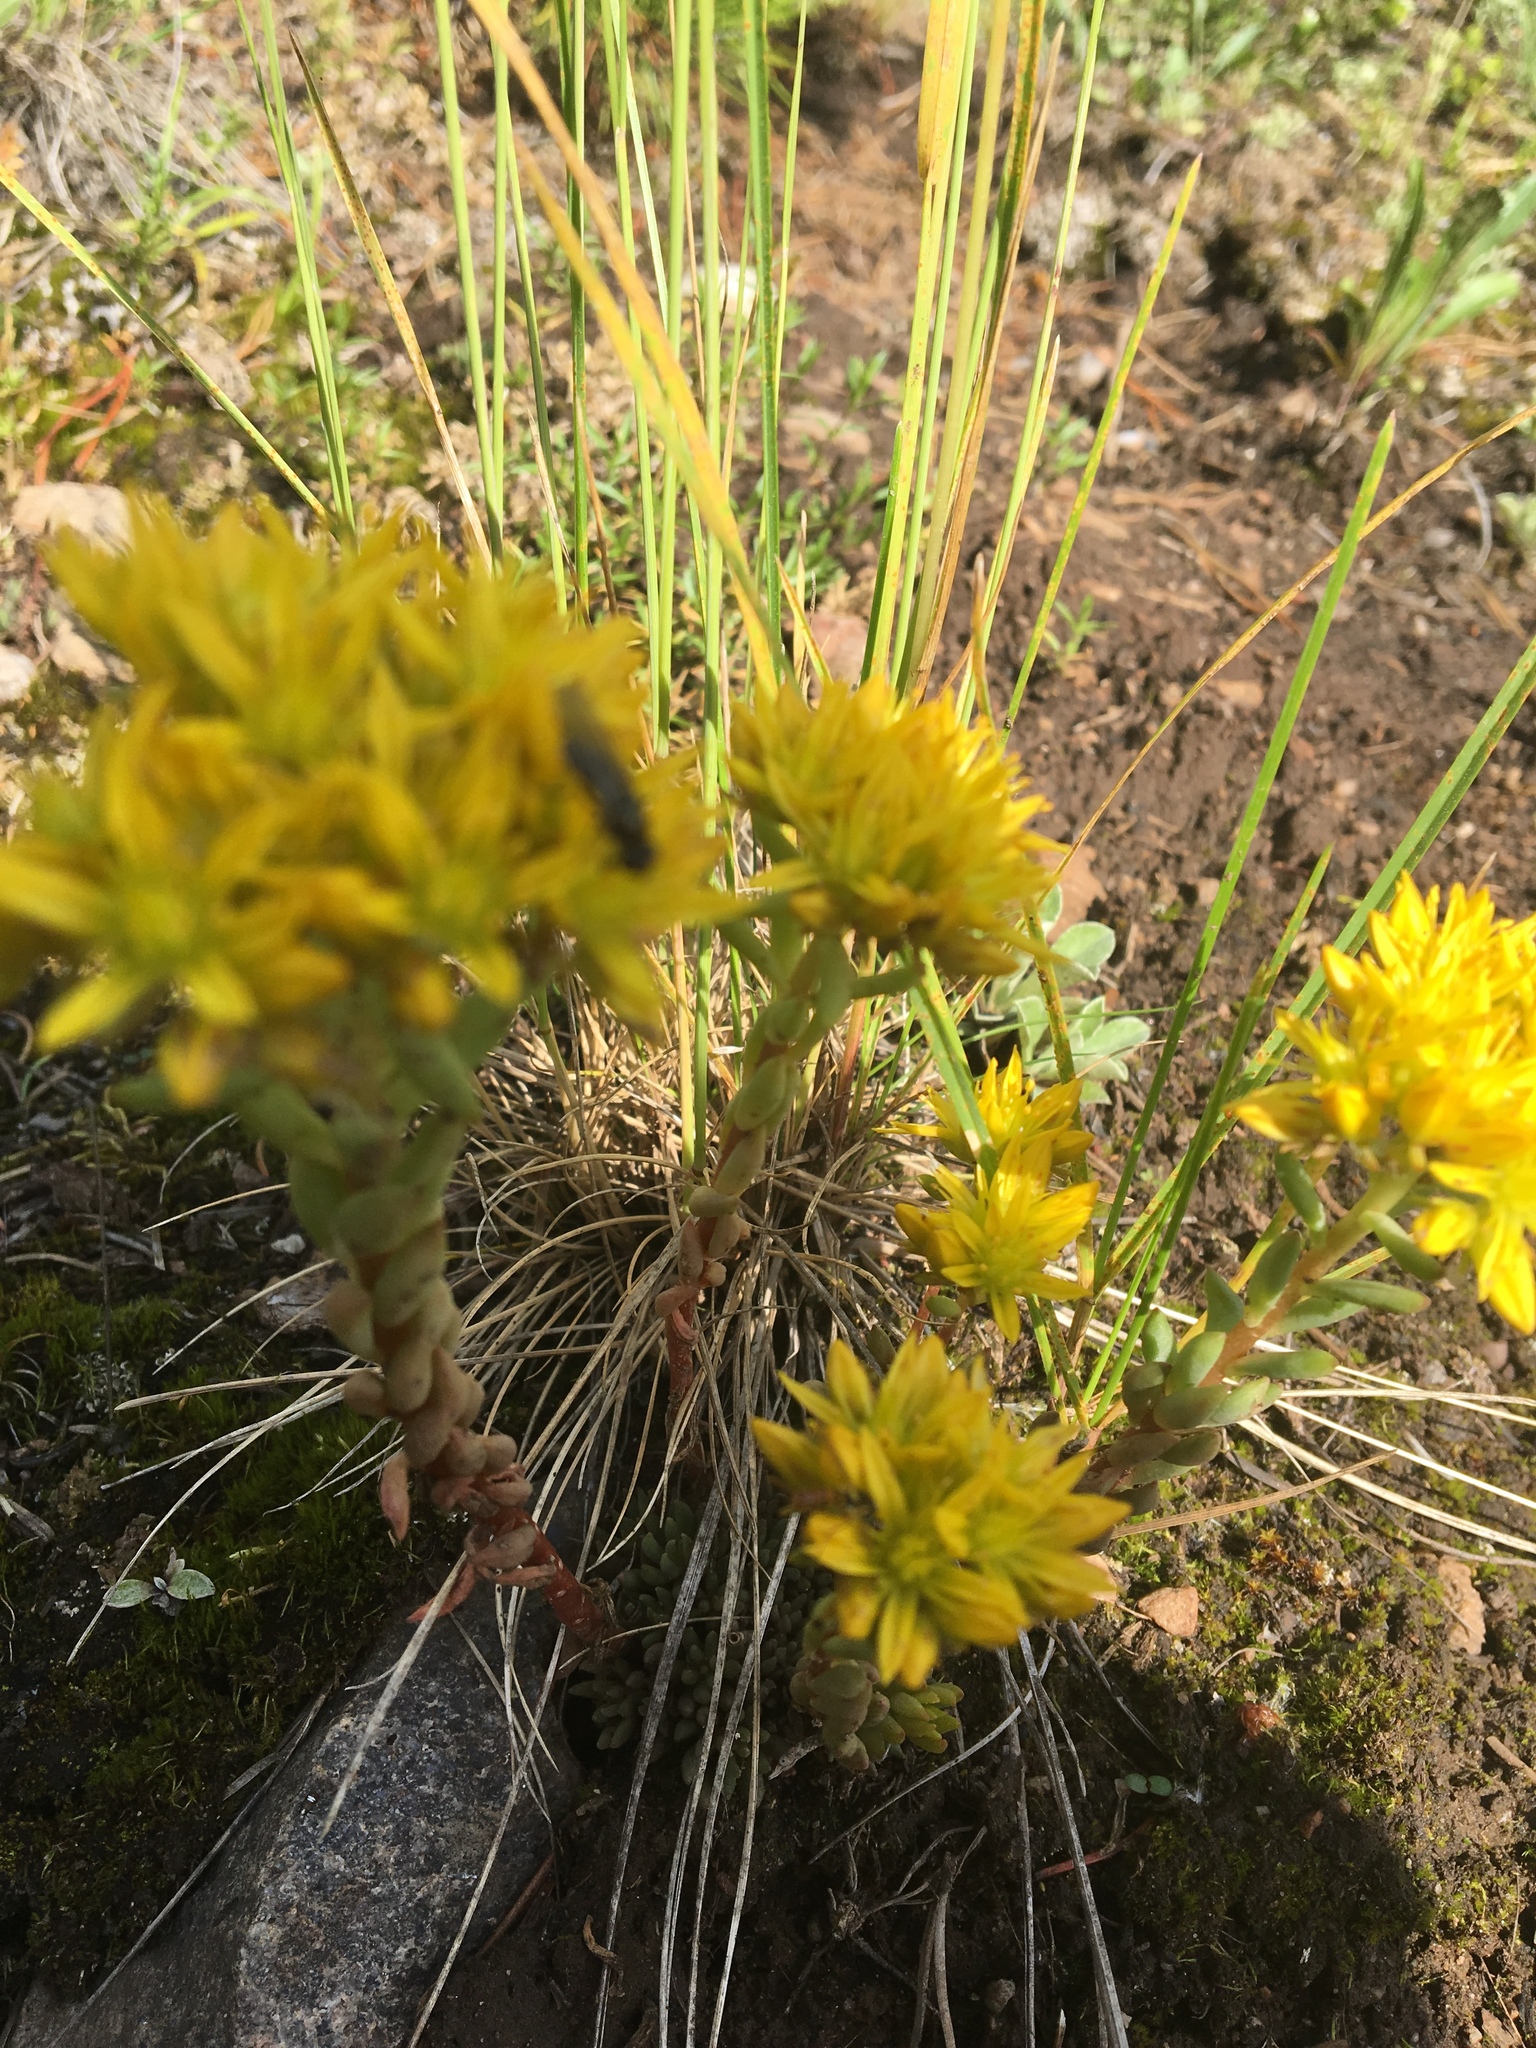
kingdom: Plantae
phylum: Tracheophyta
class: Magnoliopsida
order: Saxifragales
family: Crassulaceae
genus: Sedum
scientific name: Sedum lanceolatum
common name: Common stonecrop
